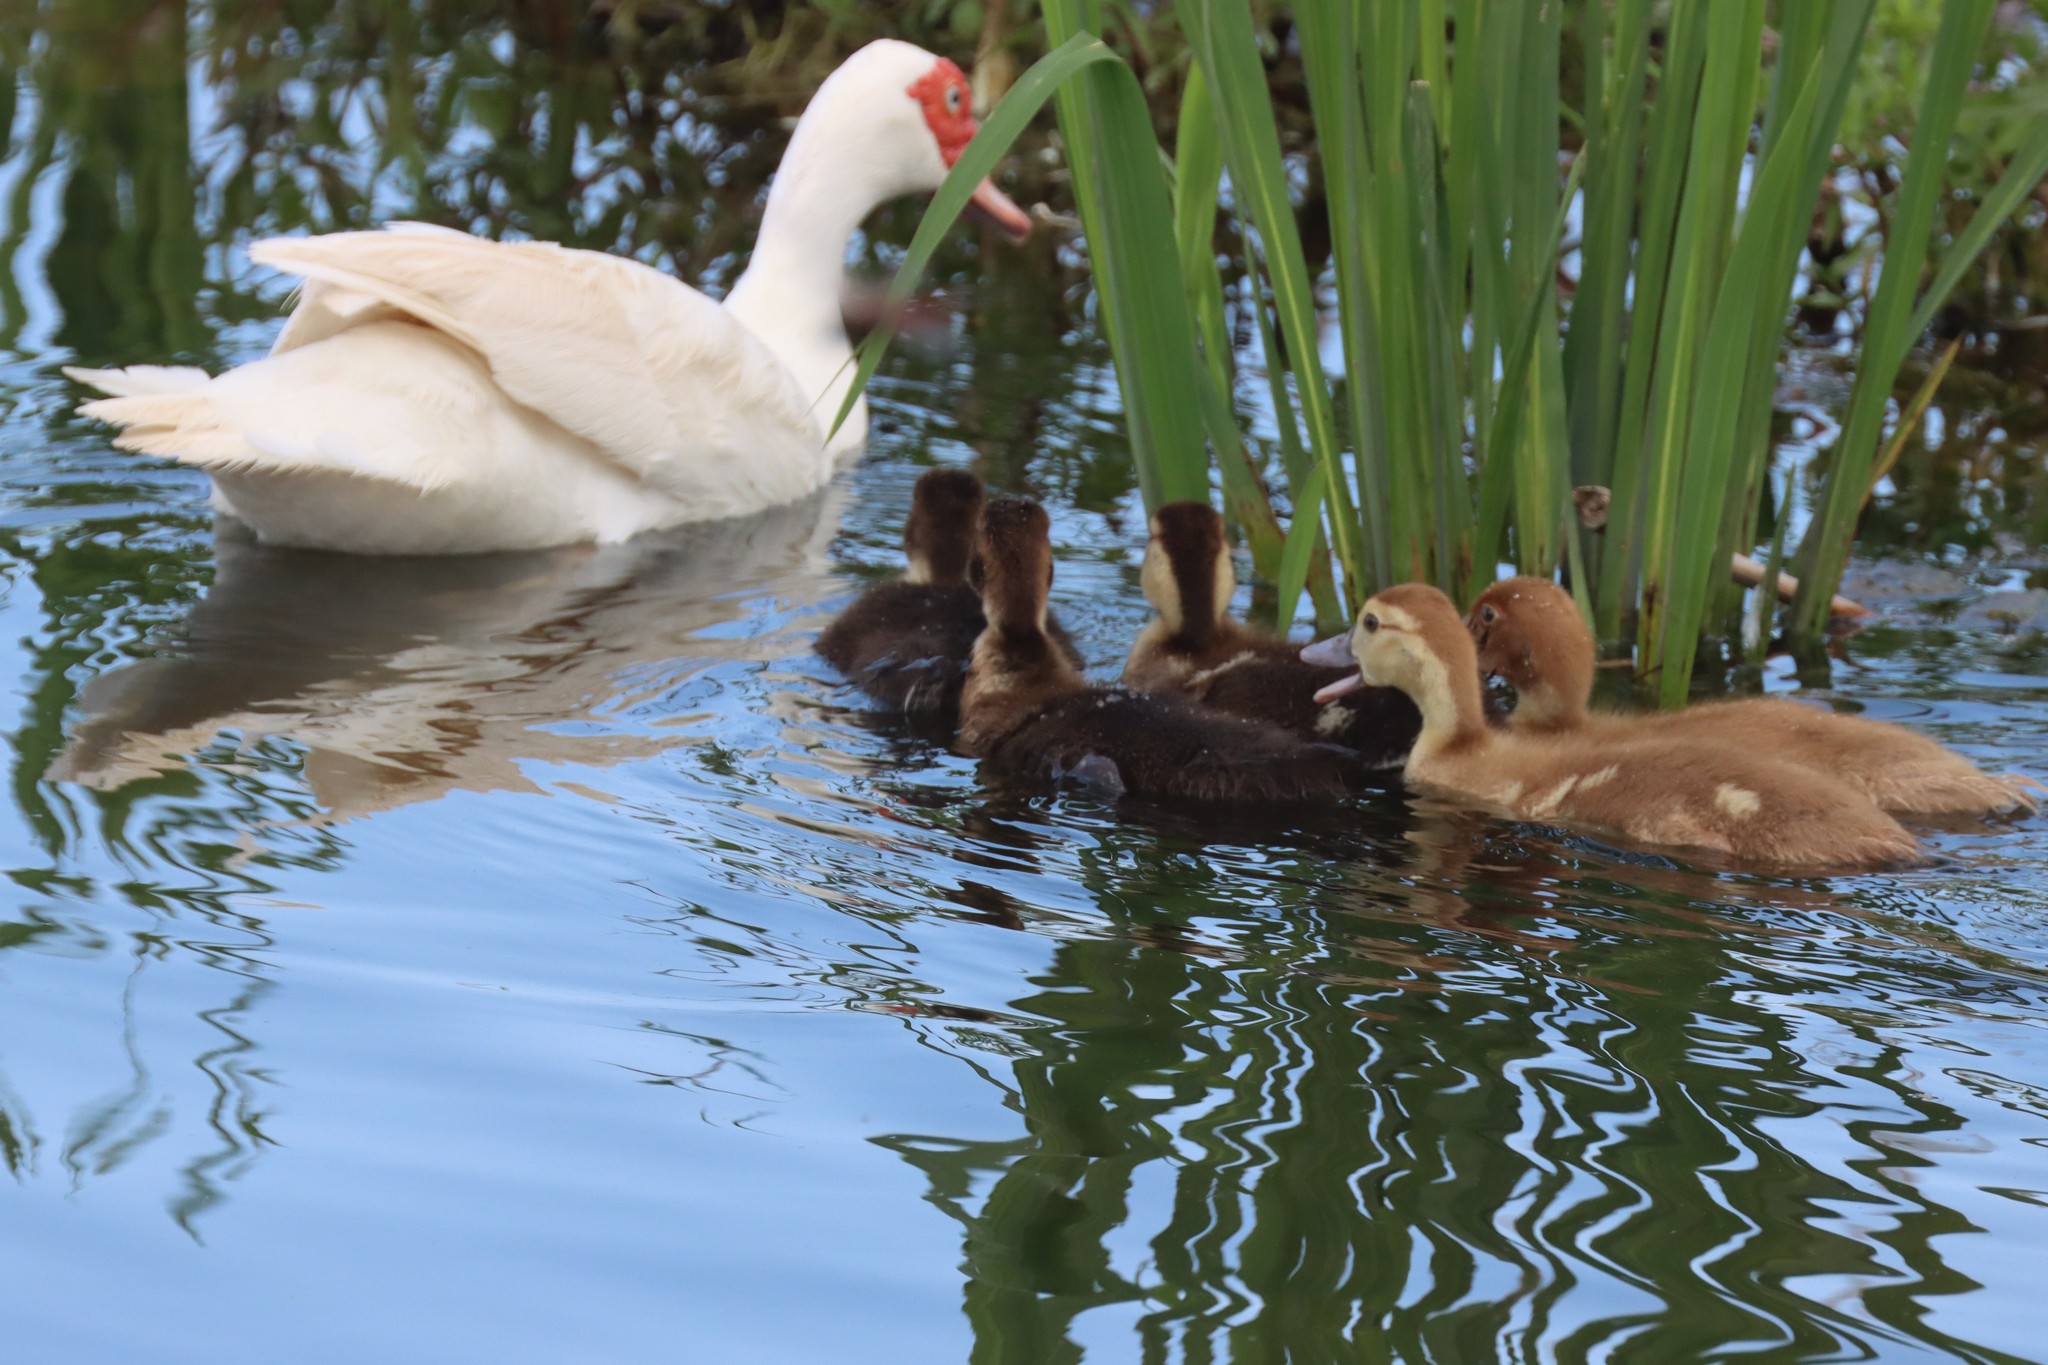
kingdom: Animalia
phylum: Chordata
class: Aves
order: Anseriformes
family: Anatidae
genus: Cairina
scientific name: Cairina moschata
